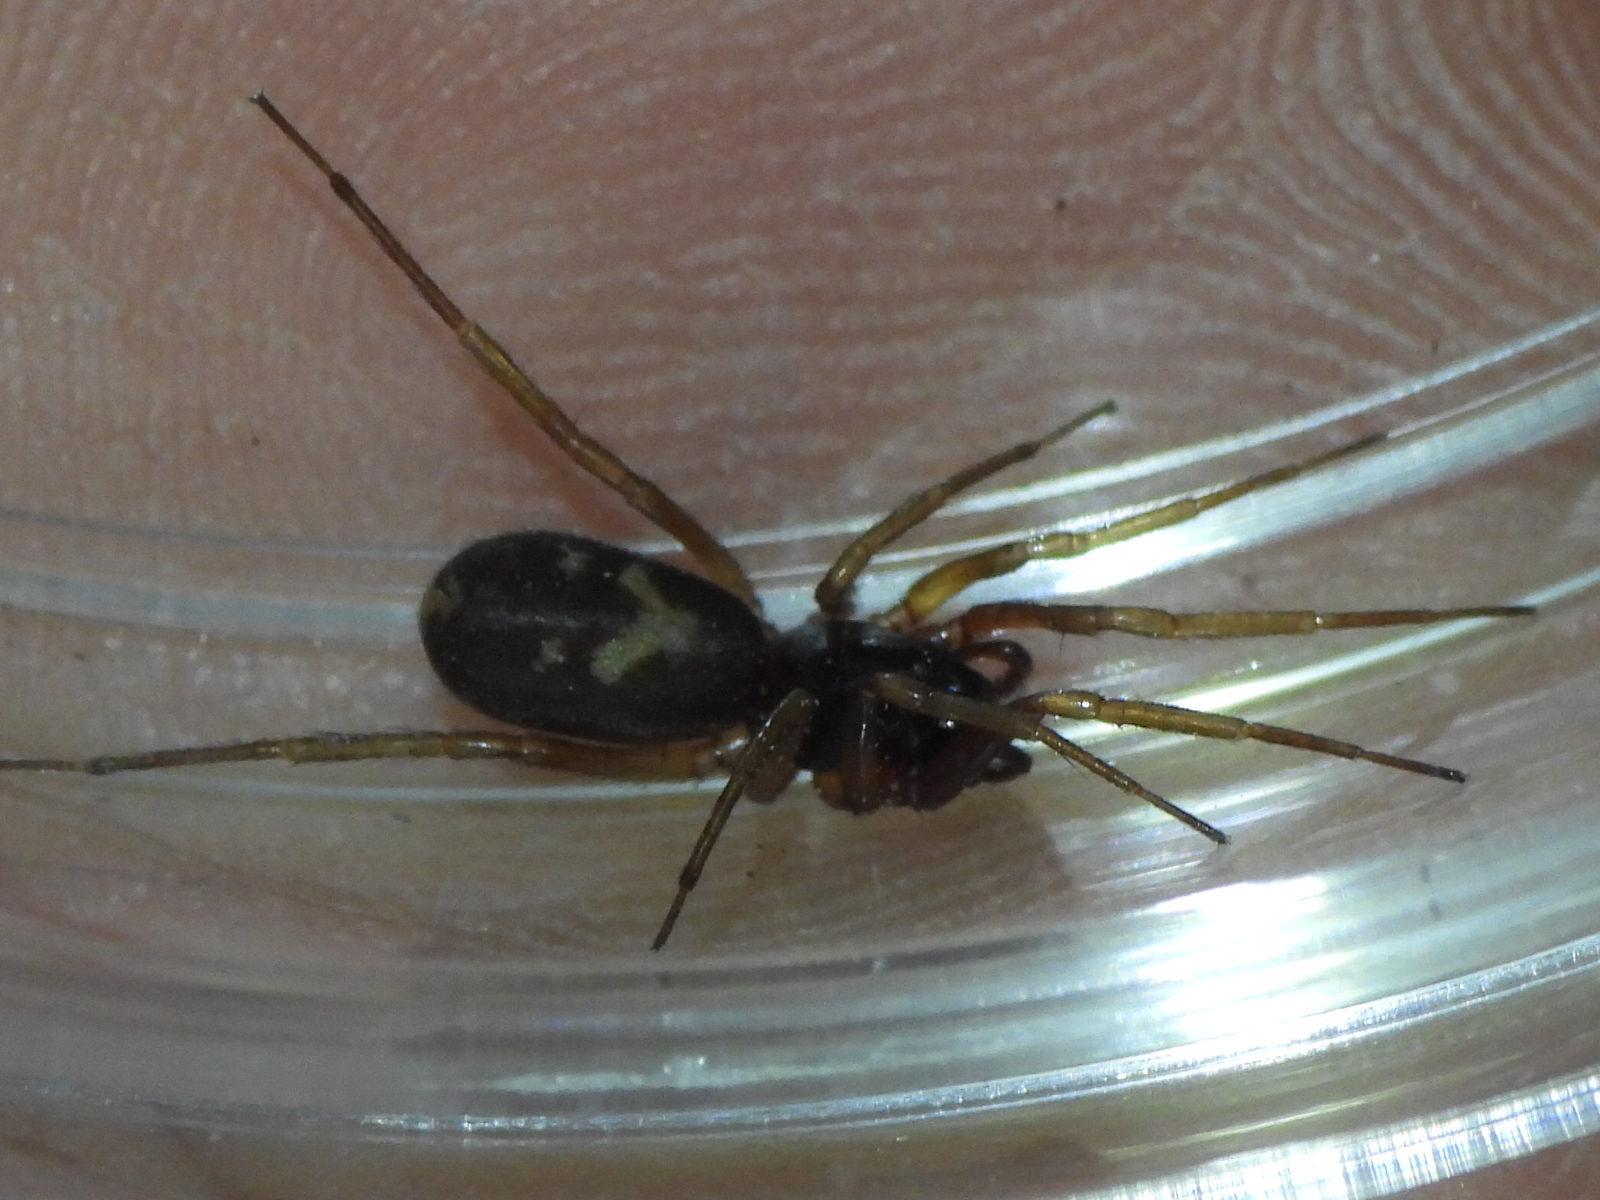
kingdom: Animalia
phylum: Arthropoda
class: Arachnida
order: Araneae
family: Corinnidae
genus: Falconina
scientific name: Falconina gracilis
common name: Antmimic spider
